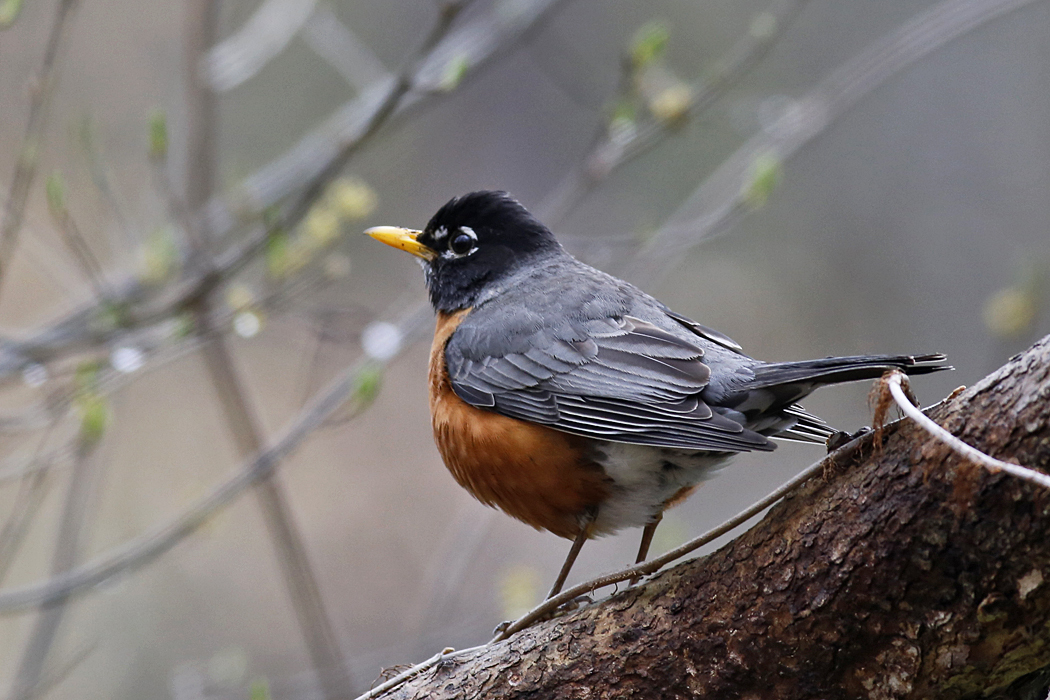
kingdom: Animalia
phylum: Chordata
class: Aves
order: Passeriformes
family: Turdidae
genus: Turdus
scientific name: Turdus migratorius
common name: American robin
